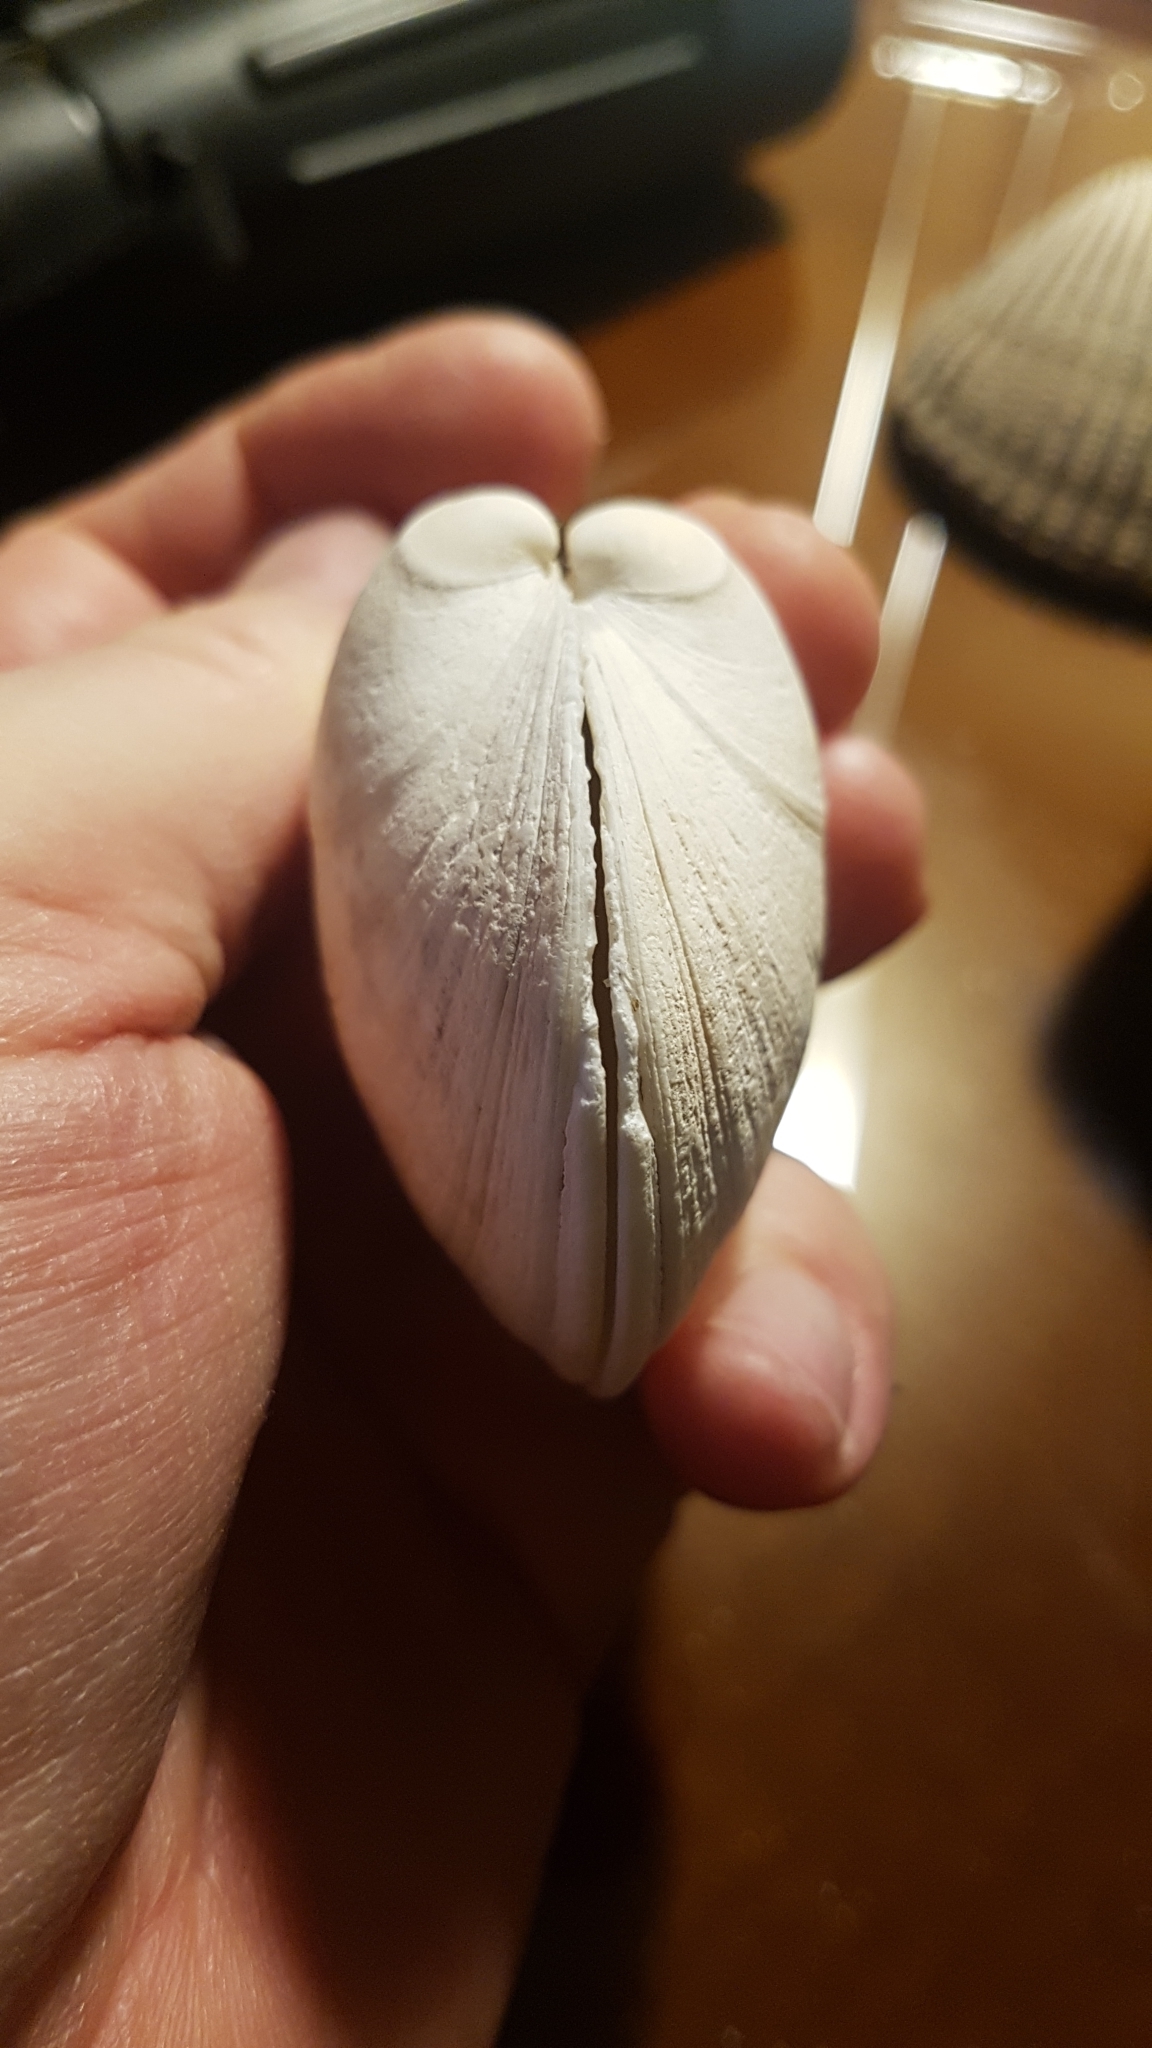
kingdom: Animalia
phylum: Mollusca
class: Bivalvia
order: Venerida
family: Veneridae
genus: Saxidomus
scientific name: Saxidomus gigantea
